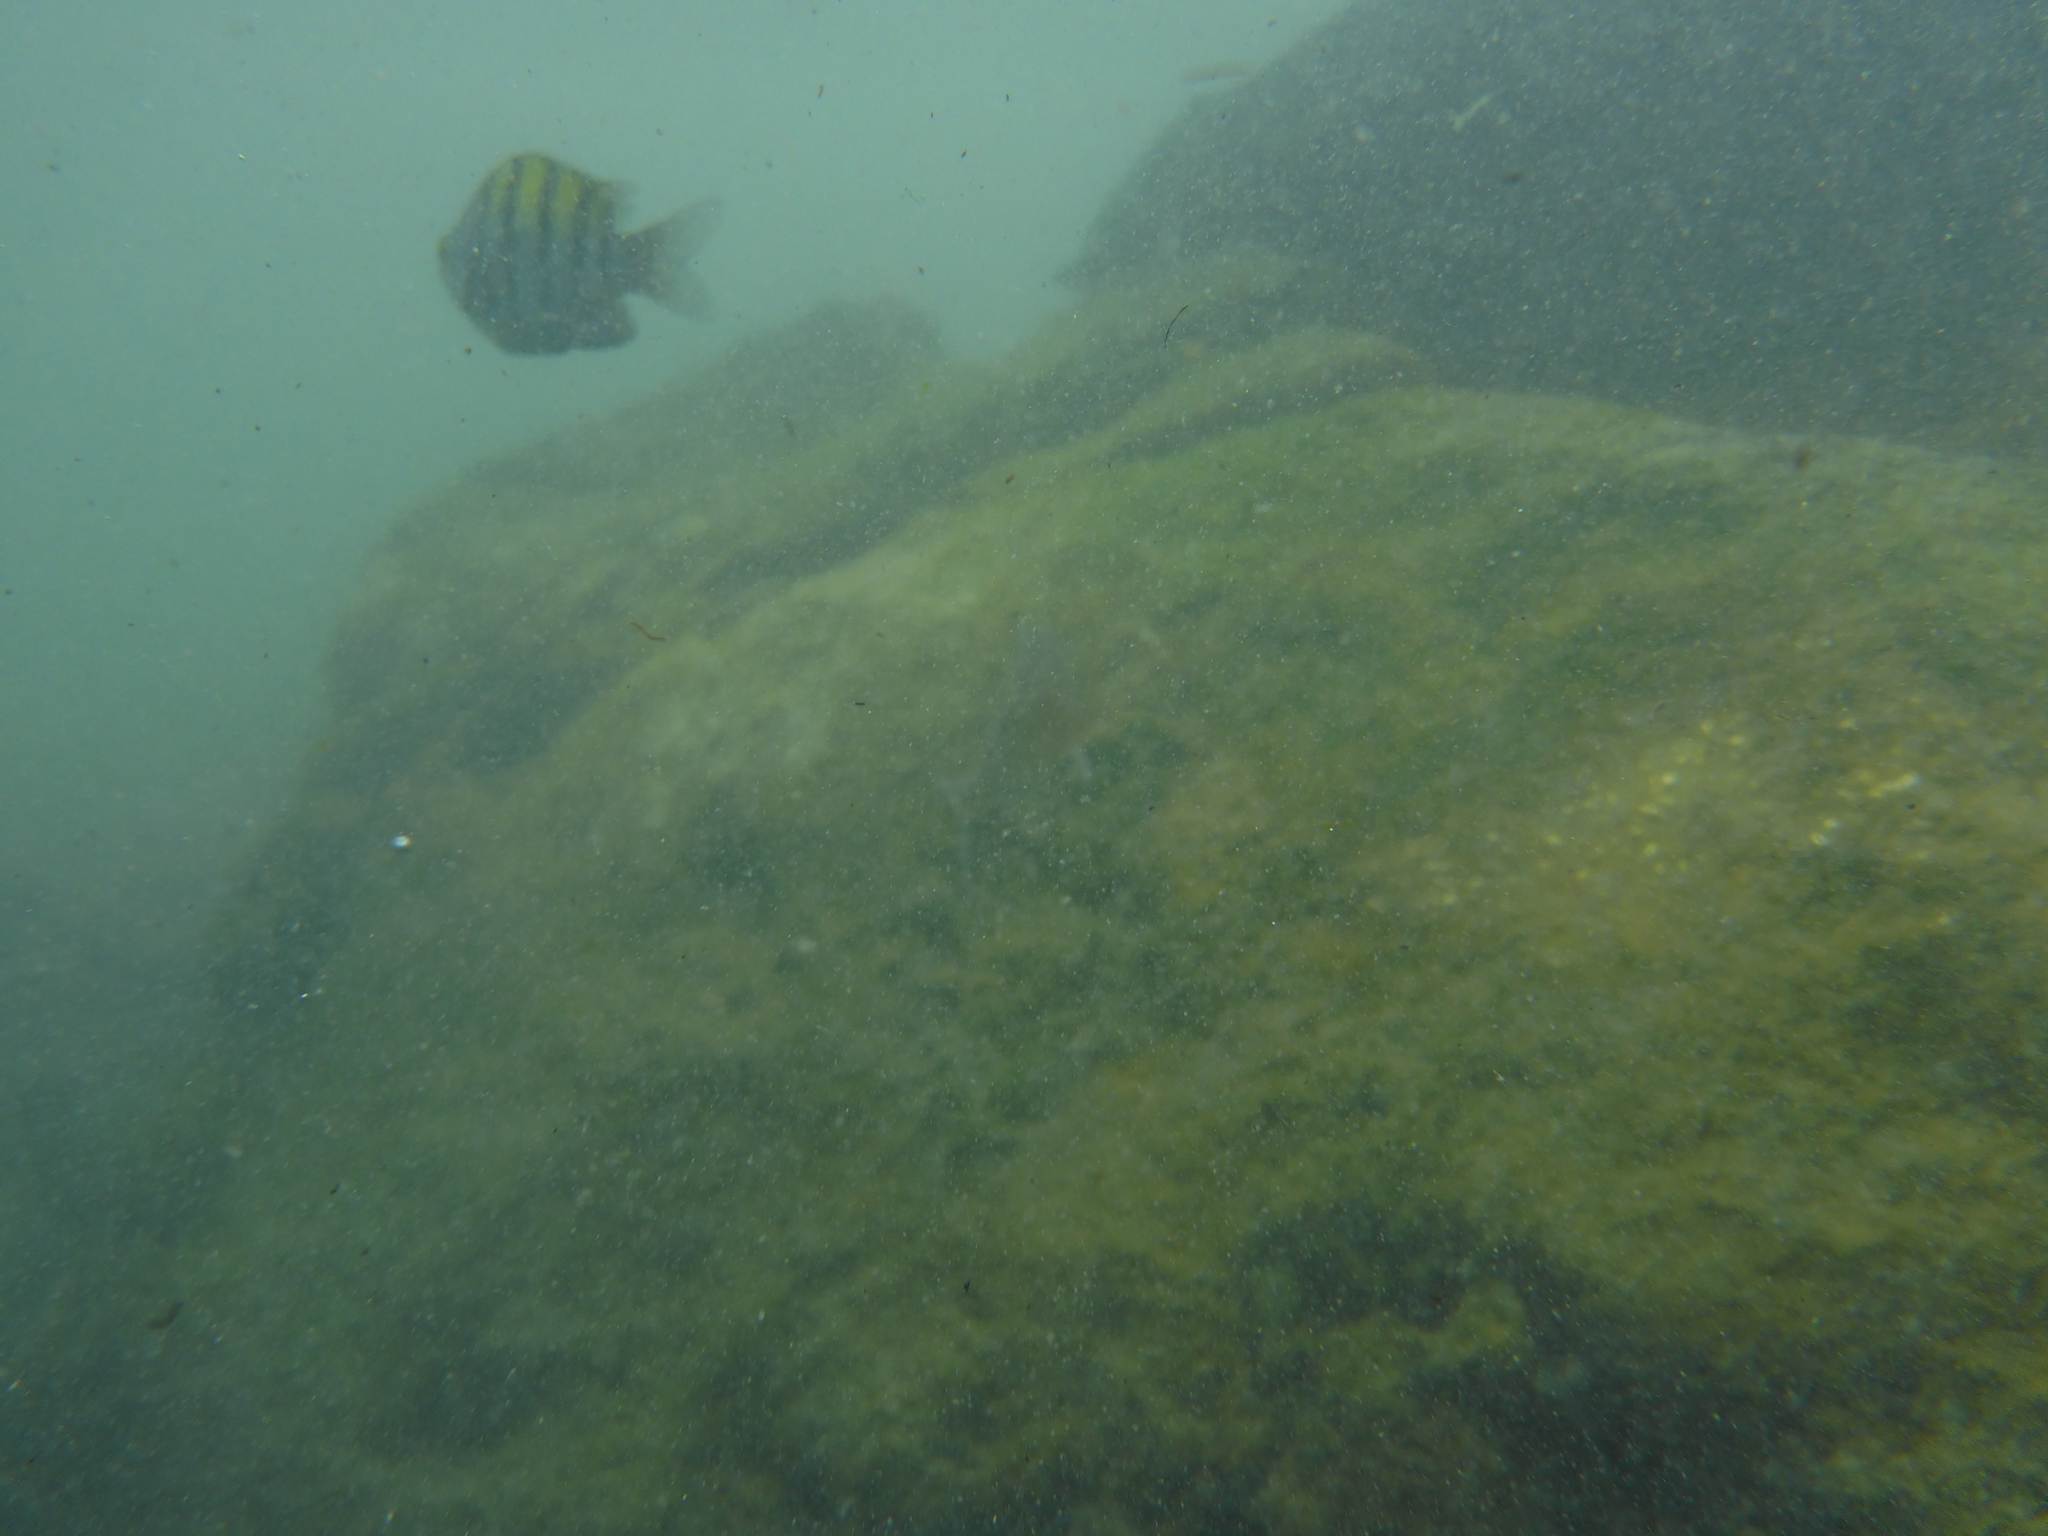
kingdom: Animalia
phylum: Chordata
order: Perciformes
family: Pomacentridae
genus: Abudefduf
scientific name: Abudefduf troschelii
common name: Panamic sergeant major
